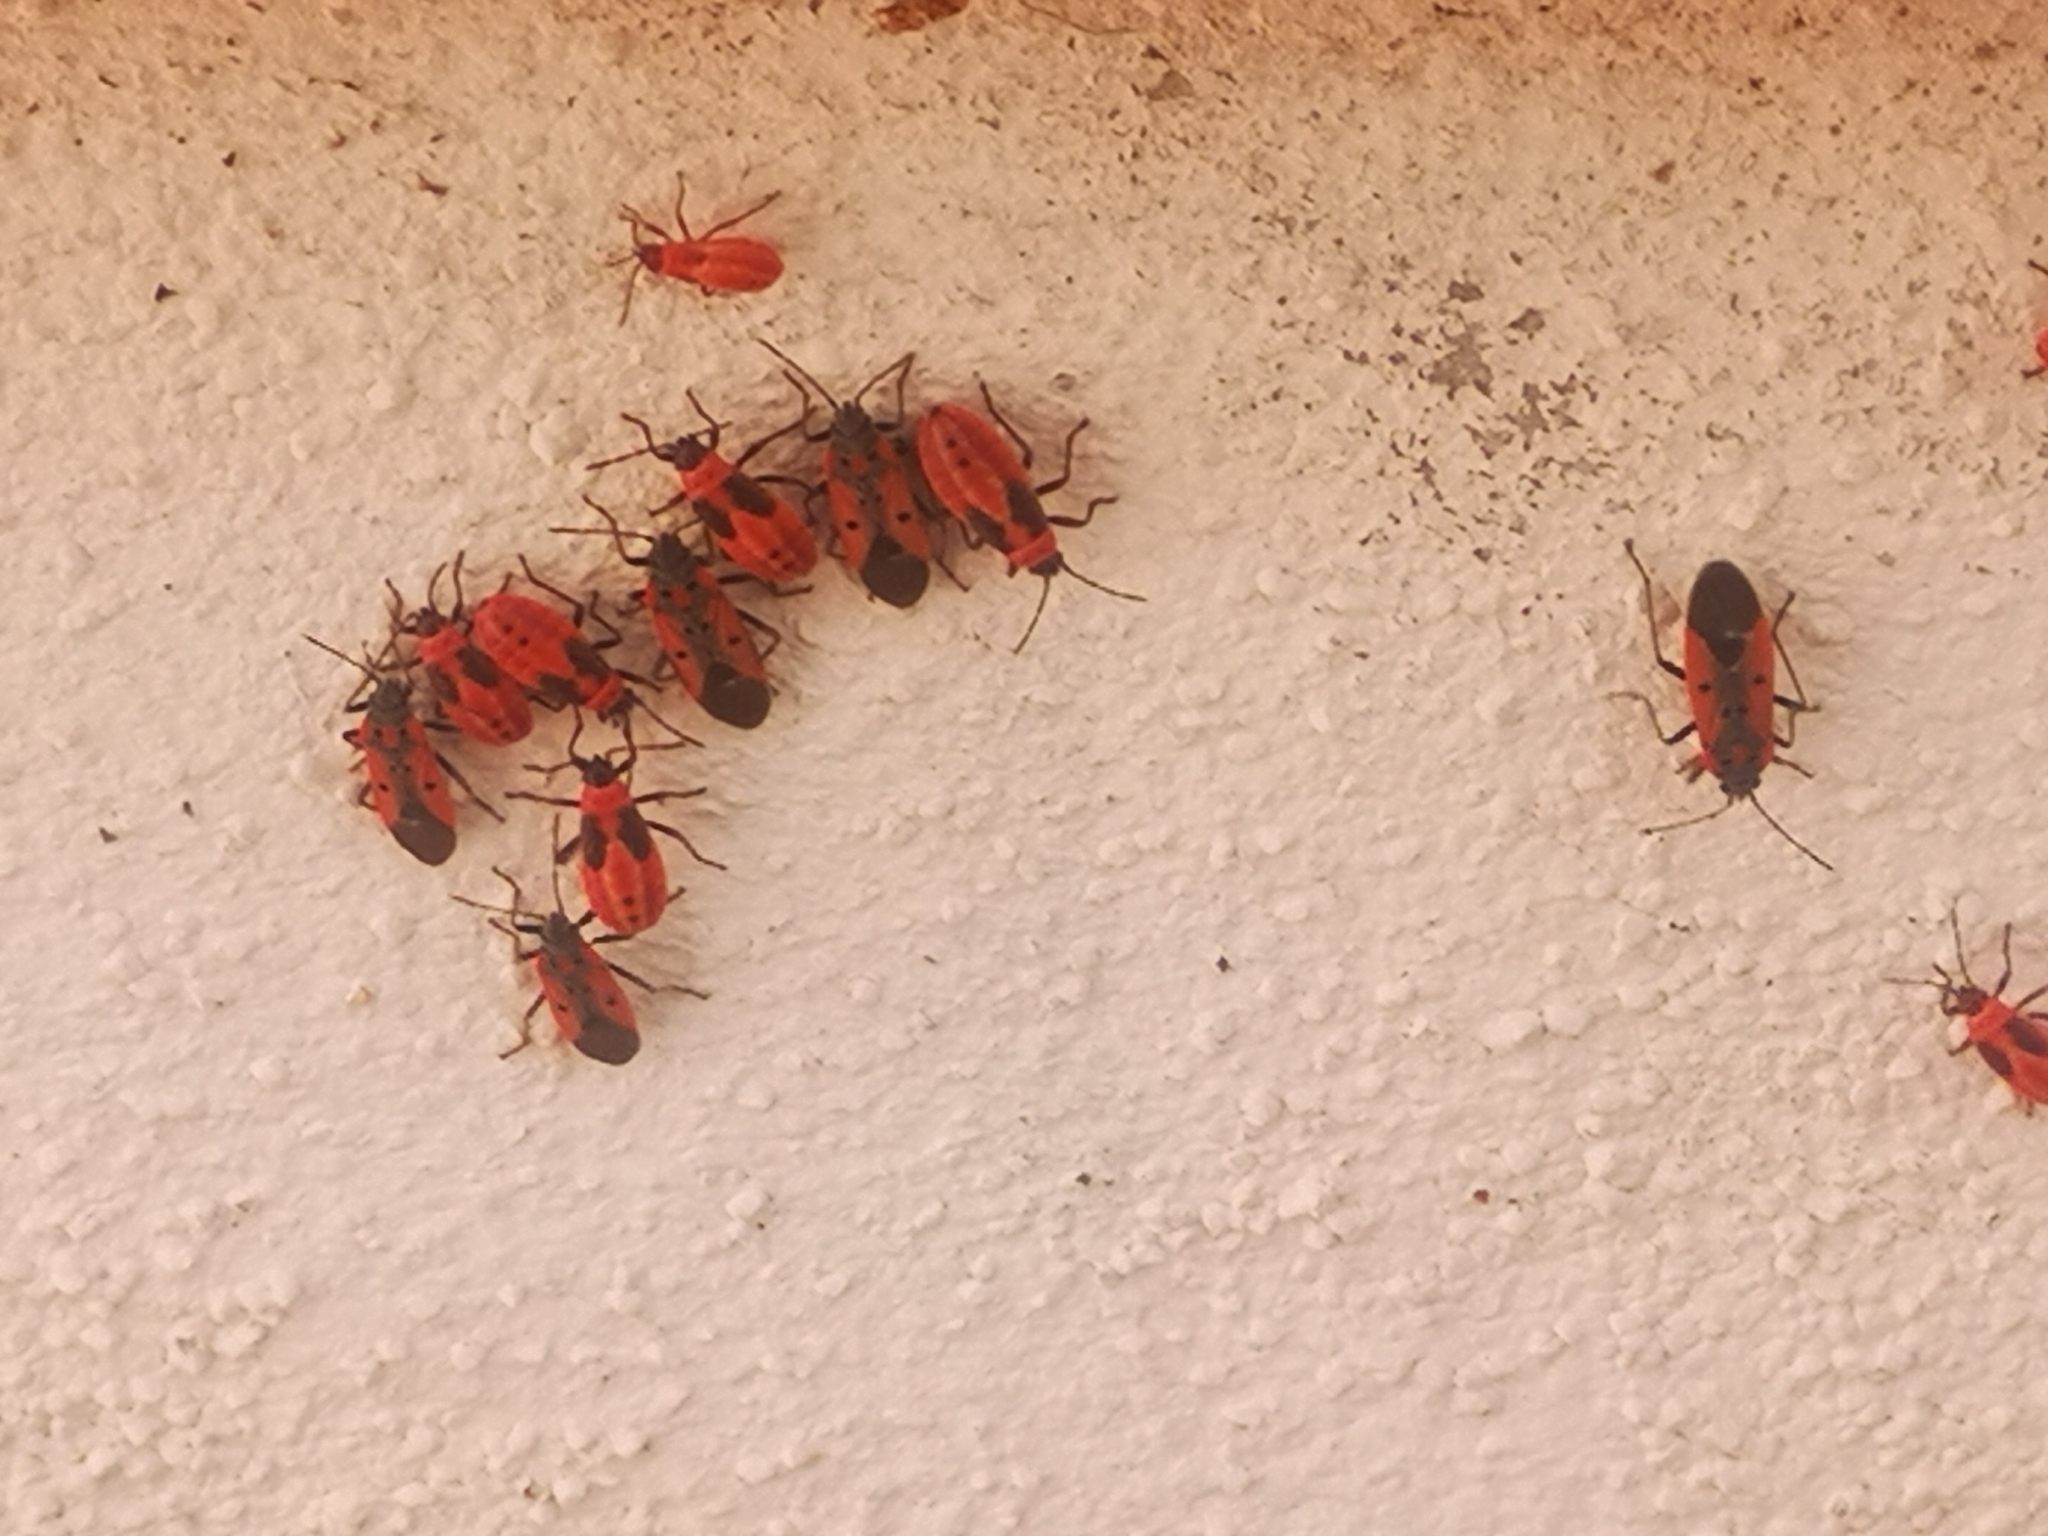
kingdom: Animalia
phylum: Arthropoda
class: Insecta
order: Hemiptera
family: Lygaeidae
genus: Lygaeus
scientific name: Lygaeus creticus
